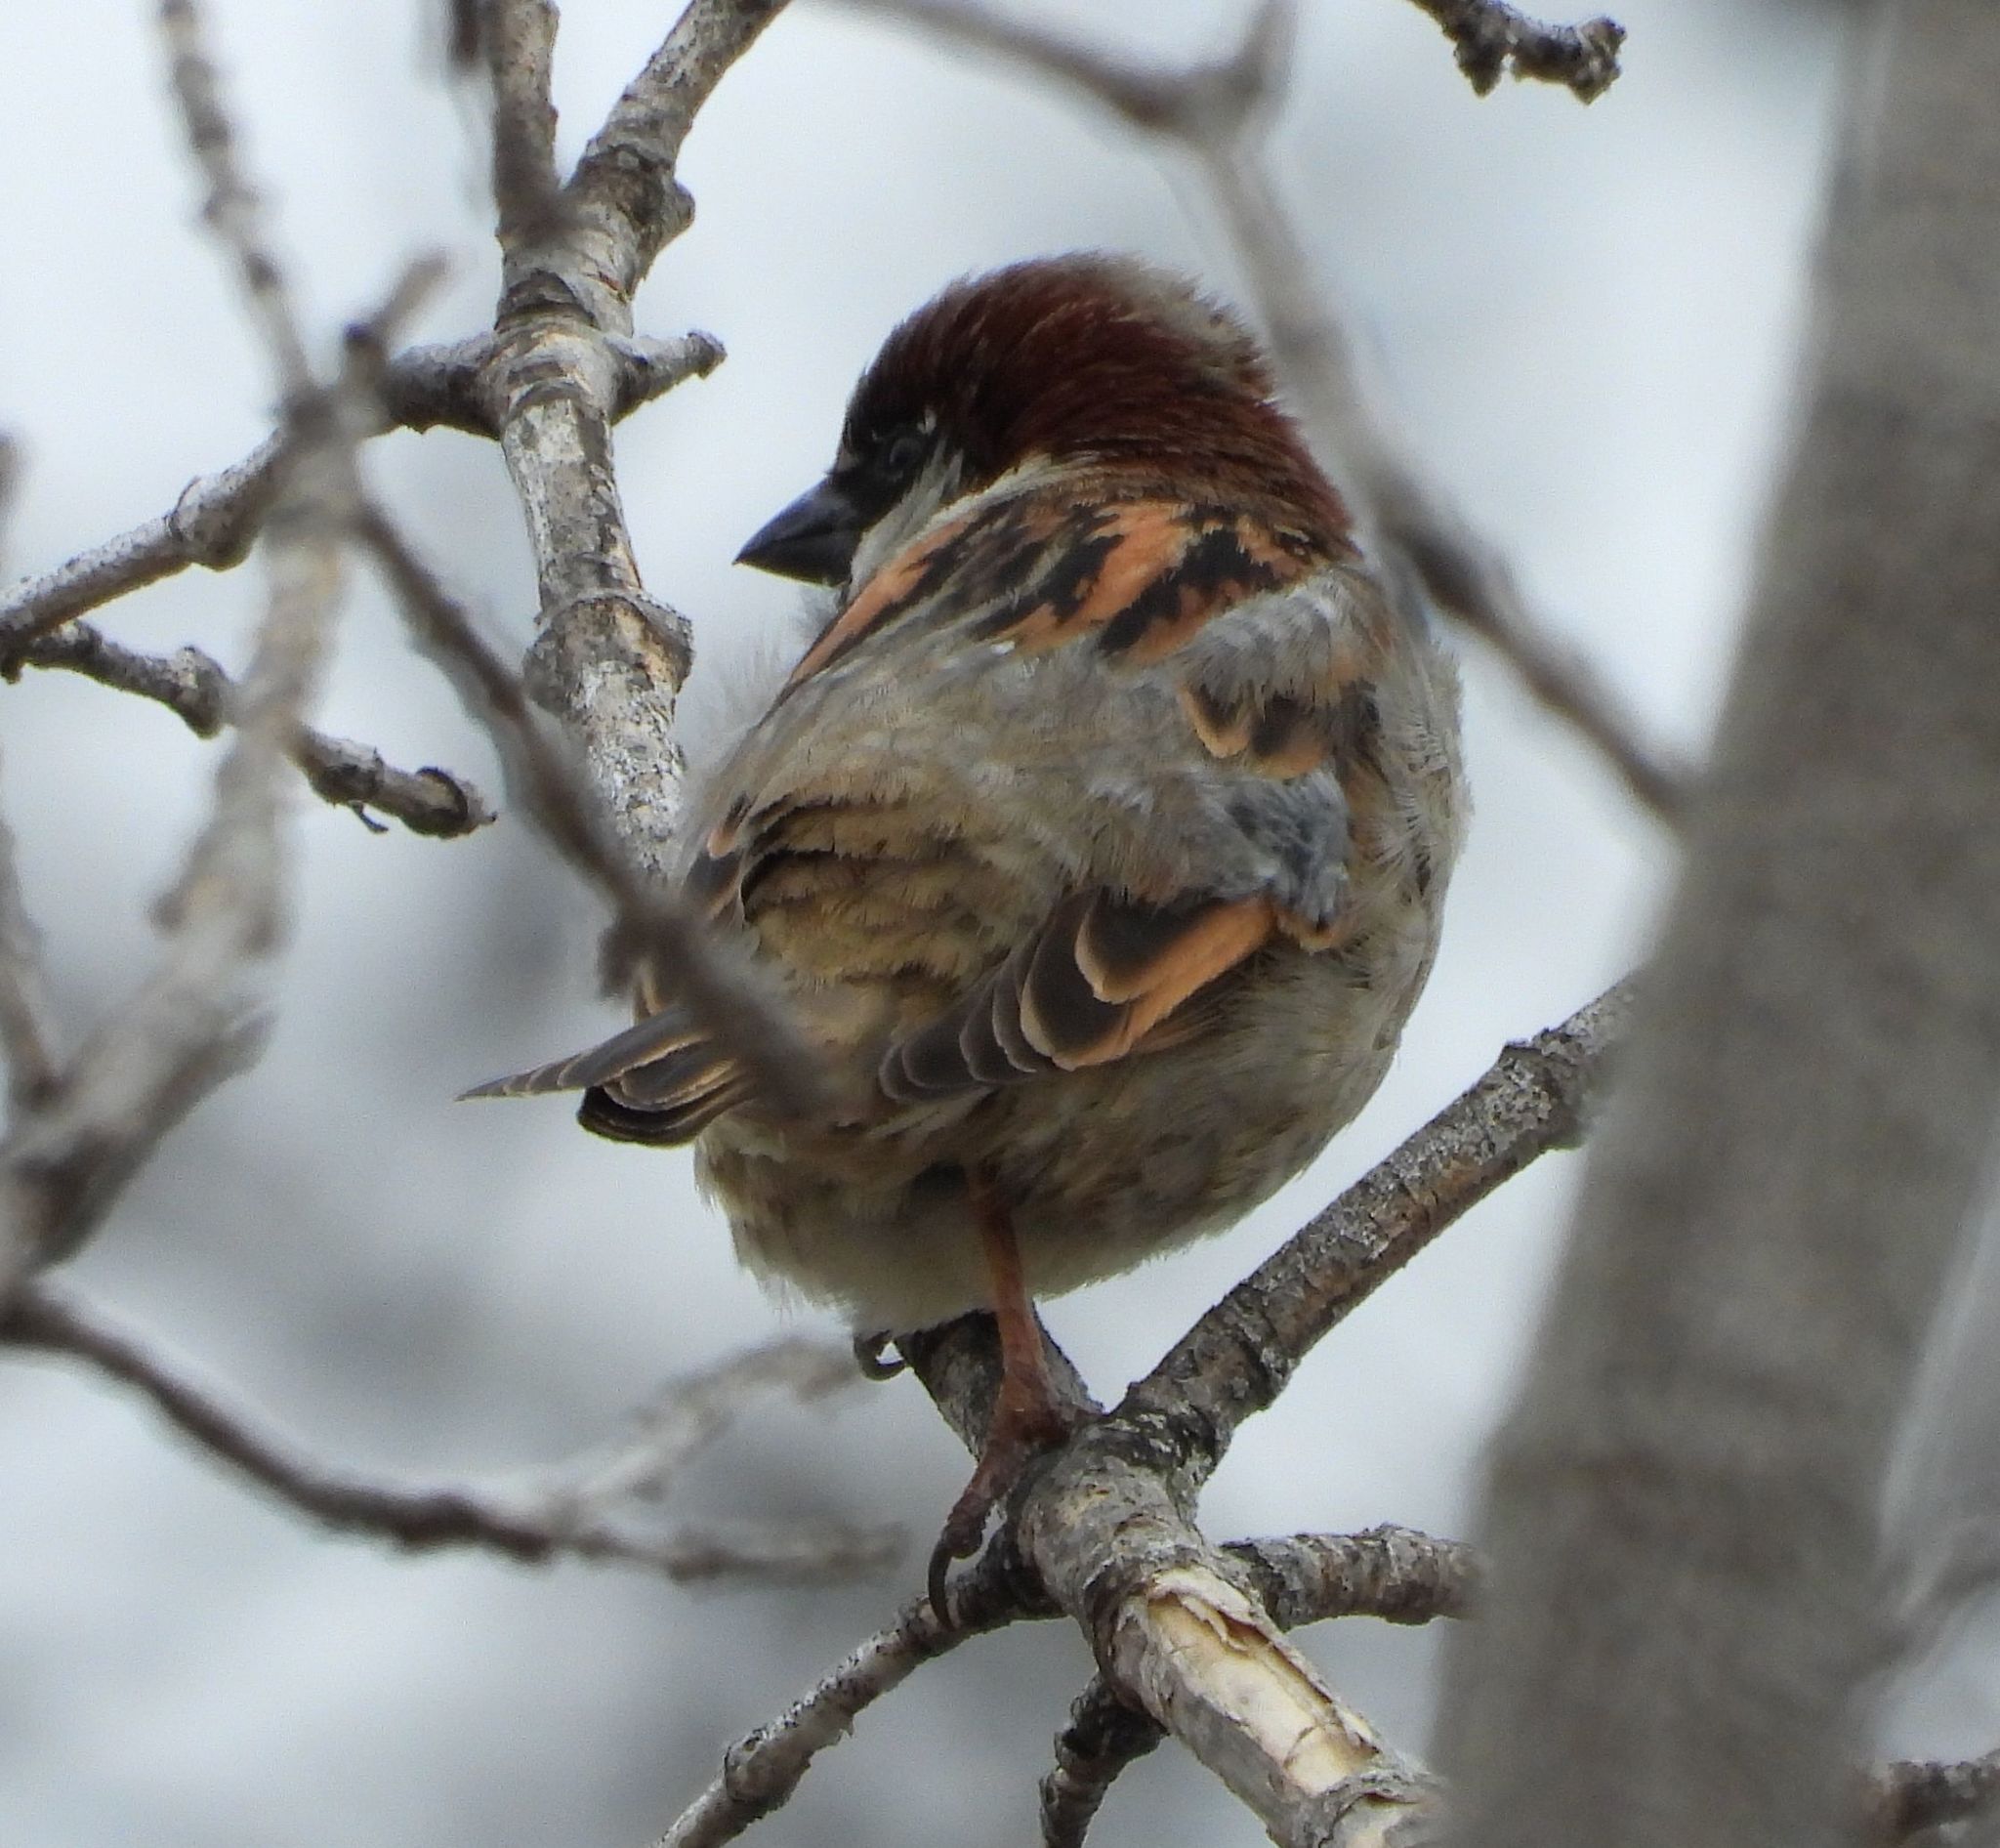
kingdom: Animalia
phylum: Chordata
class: Aves
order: Passeriformes
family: Passeridae
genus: Passer
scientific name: Passer domesticus
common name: House sparrow
